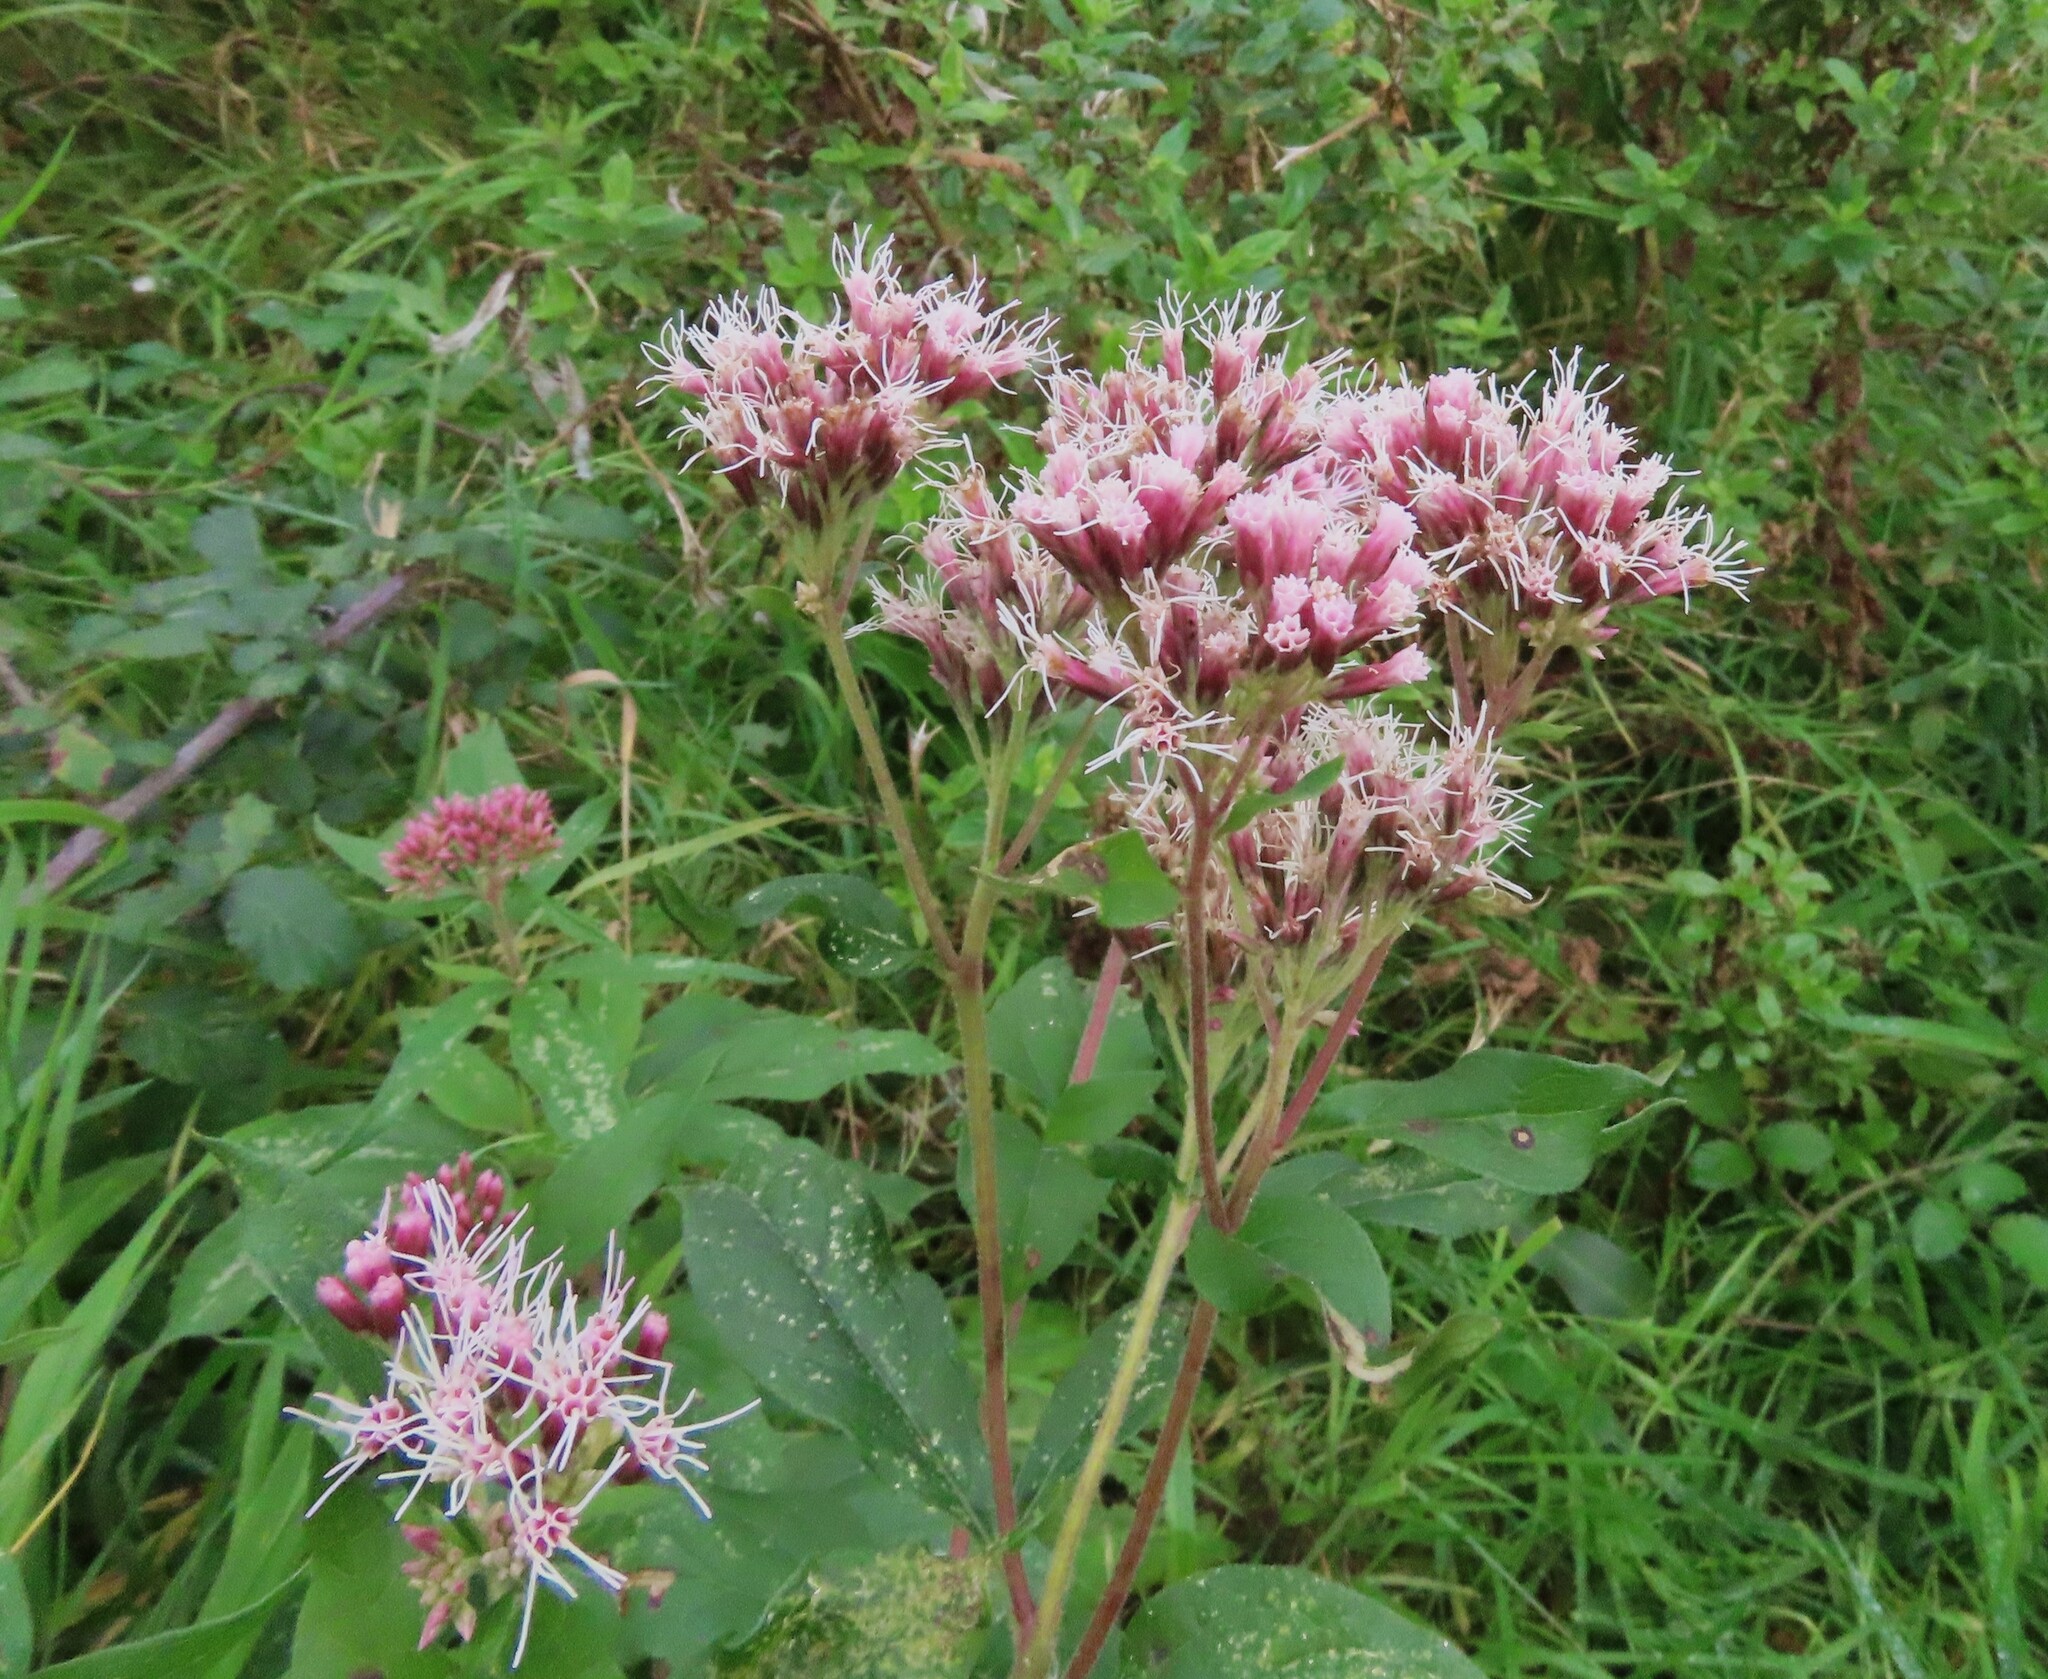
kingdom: Plantae
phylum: Tracheophyta
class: Magnoliopsida
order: Asterales
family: Asteraceae
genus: Eupatorium
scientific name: Eupatorium cannabinum
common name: Hemp-agrimony
